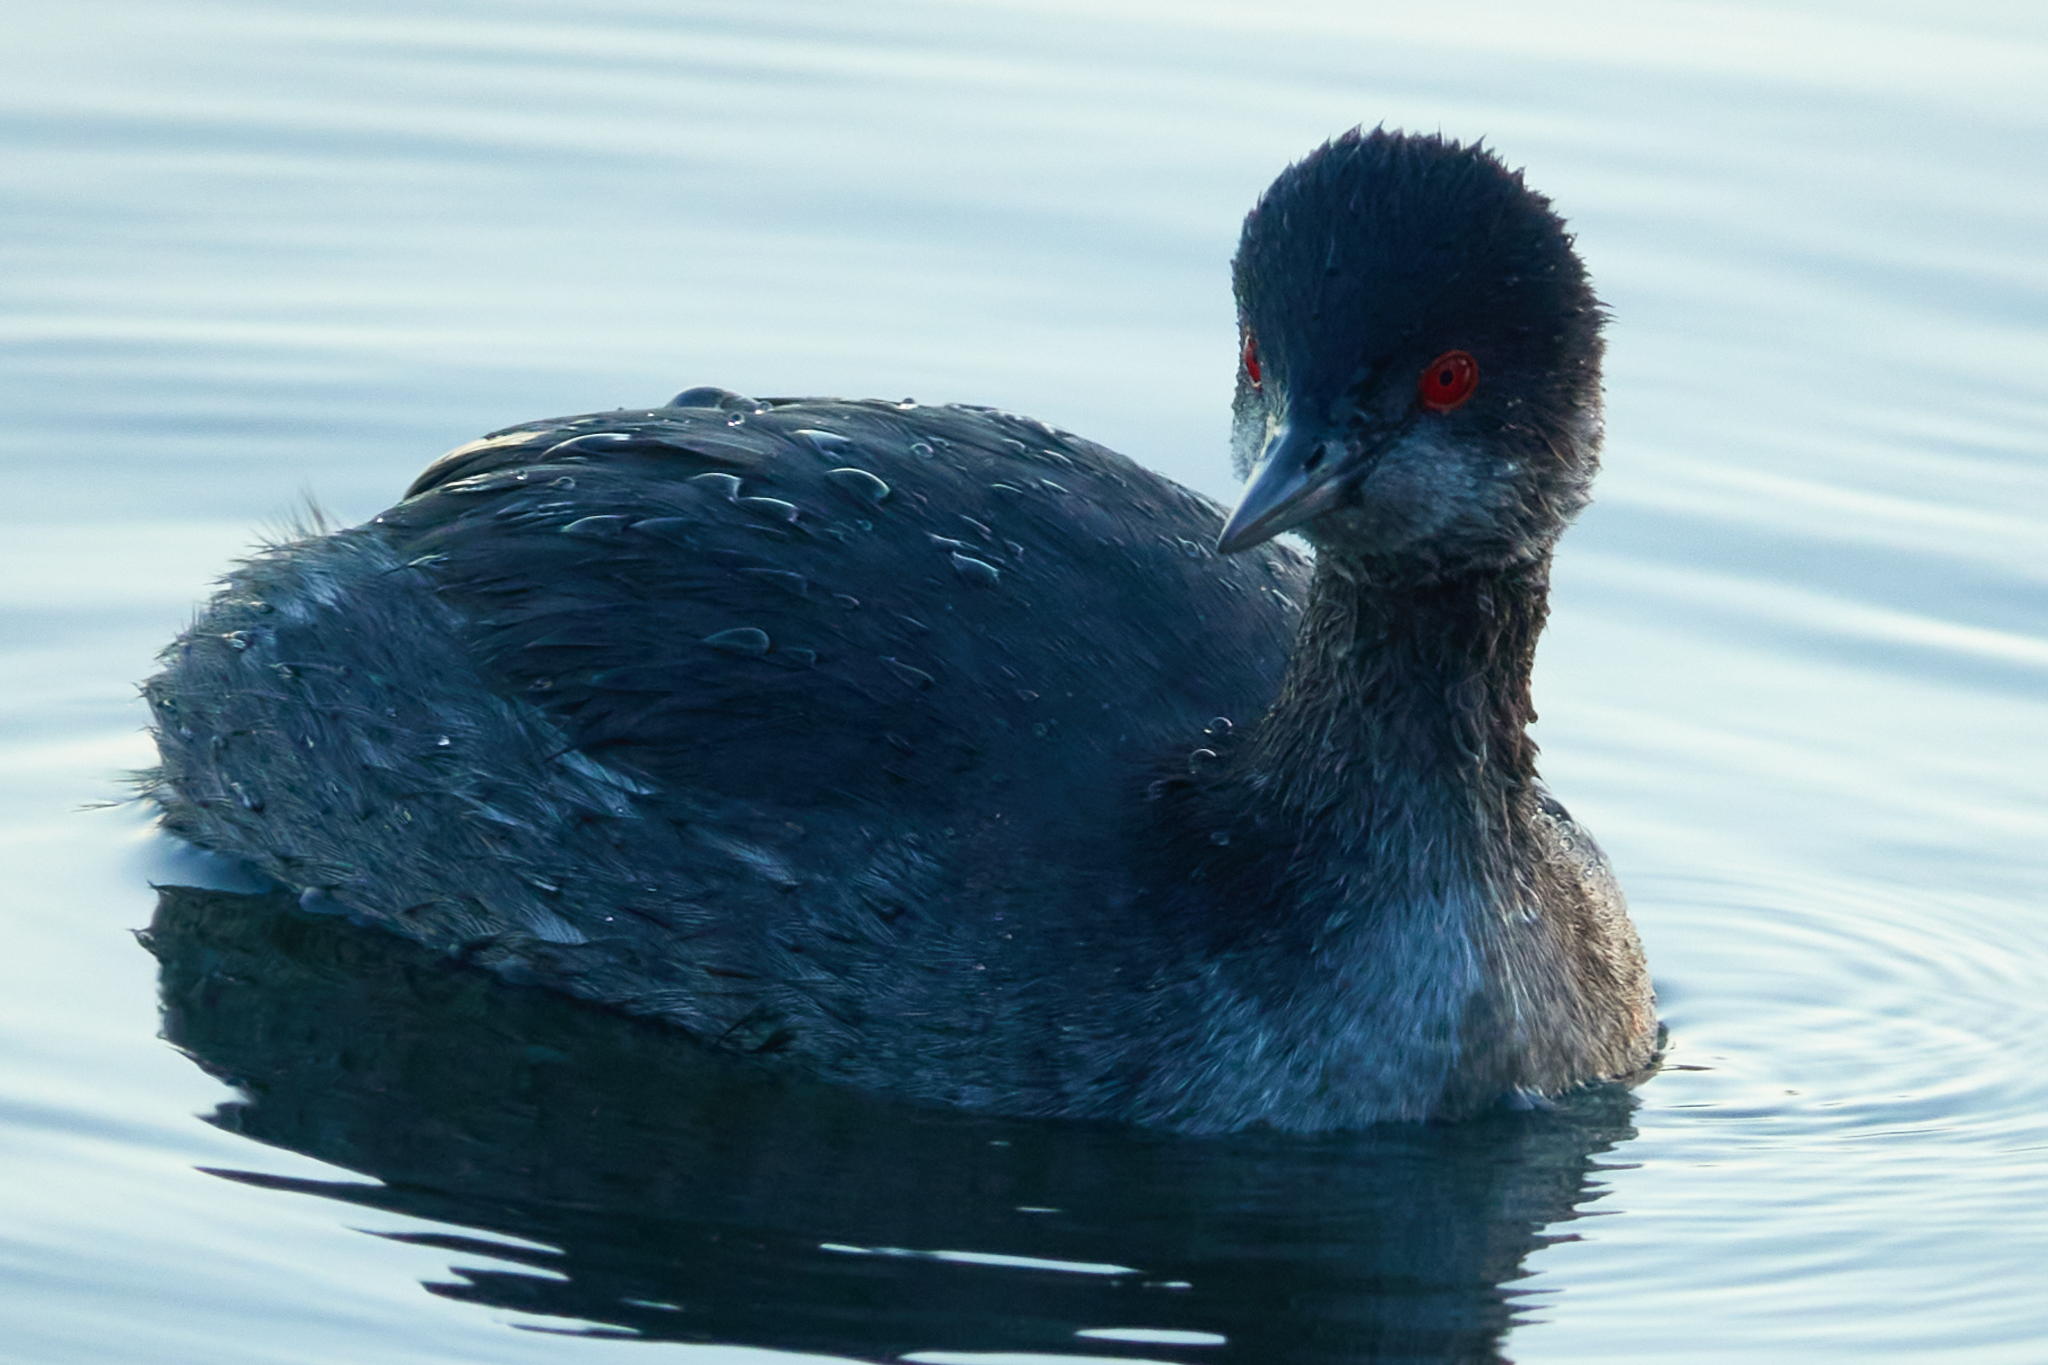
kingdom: Animalia
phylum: Chordata
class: Aves
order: Podicipediformes
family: Podicipedidae
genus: Podiceps
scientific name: Podiceps nigricollis
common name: Black-necked grebe
